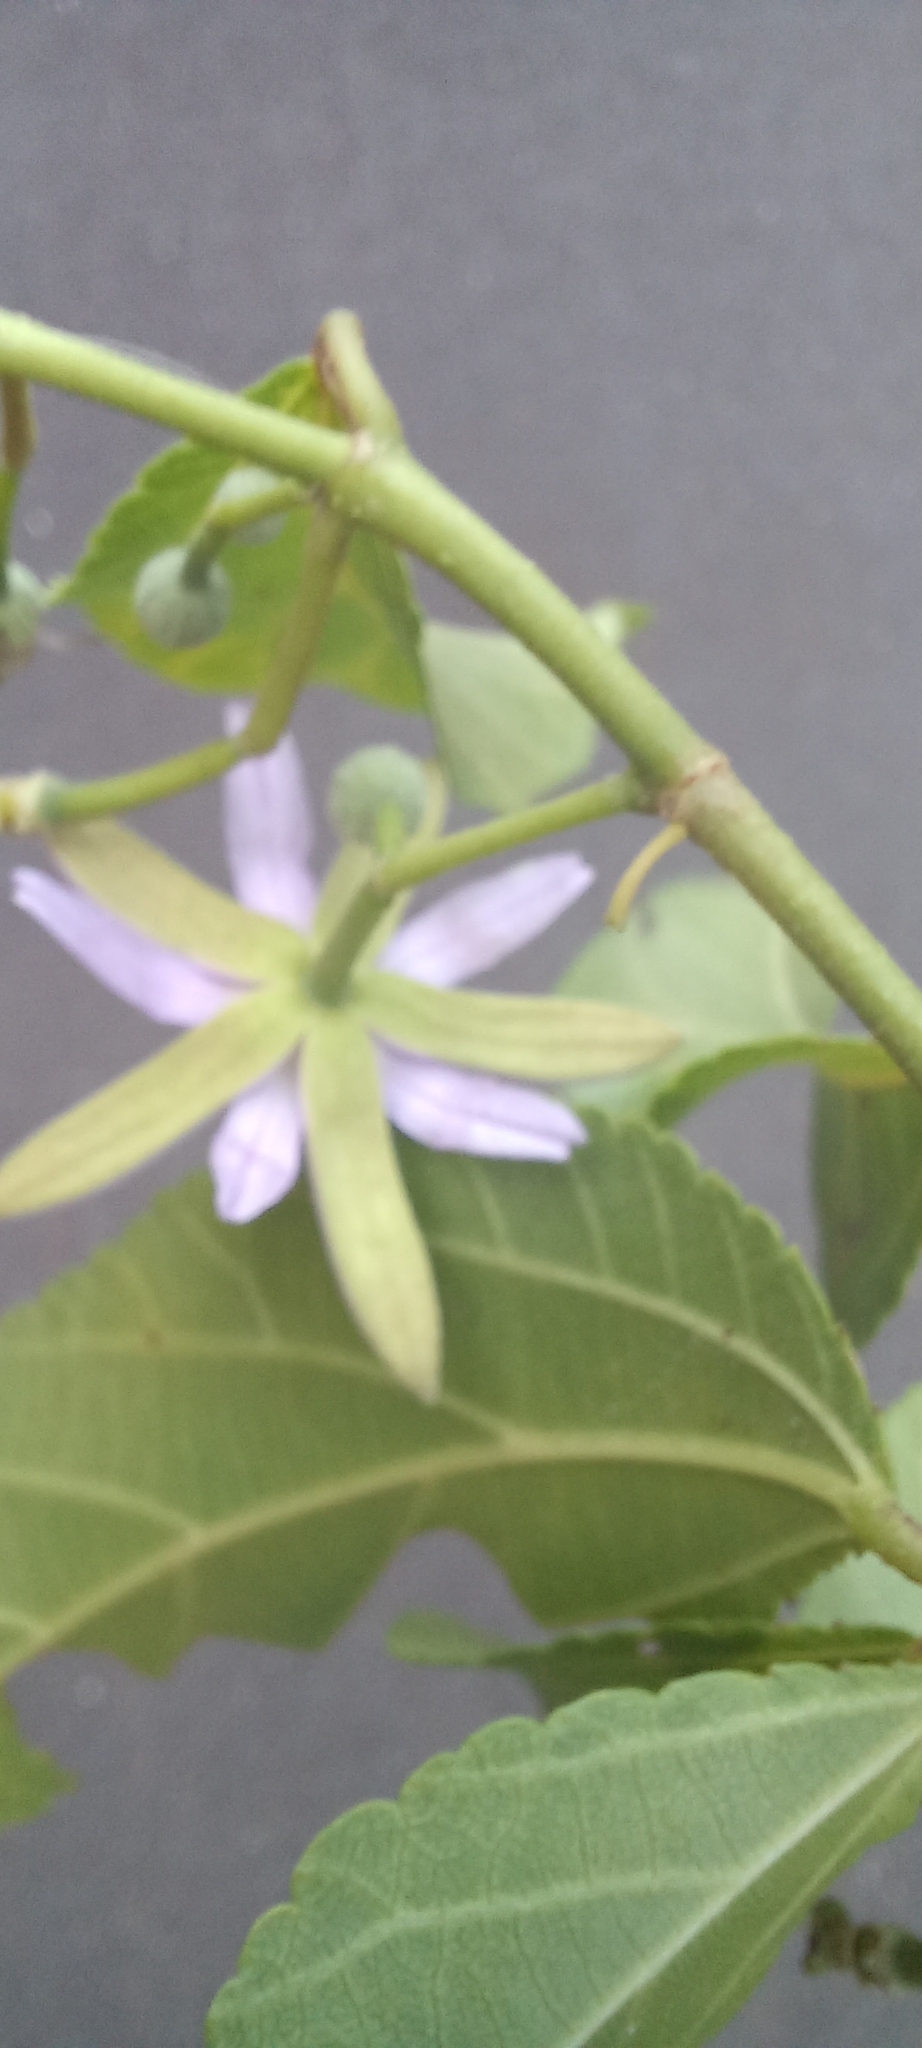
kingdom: Plantae
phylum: Tracheophyta
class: Magnoliopsida
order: Malvales
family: Malvaceae
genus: Grewia
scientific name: Grewia occidentalis
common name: Crossberry
